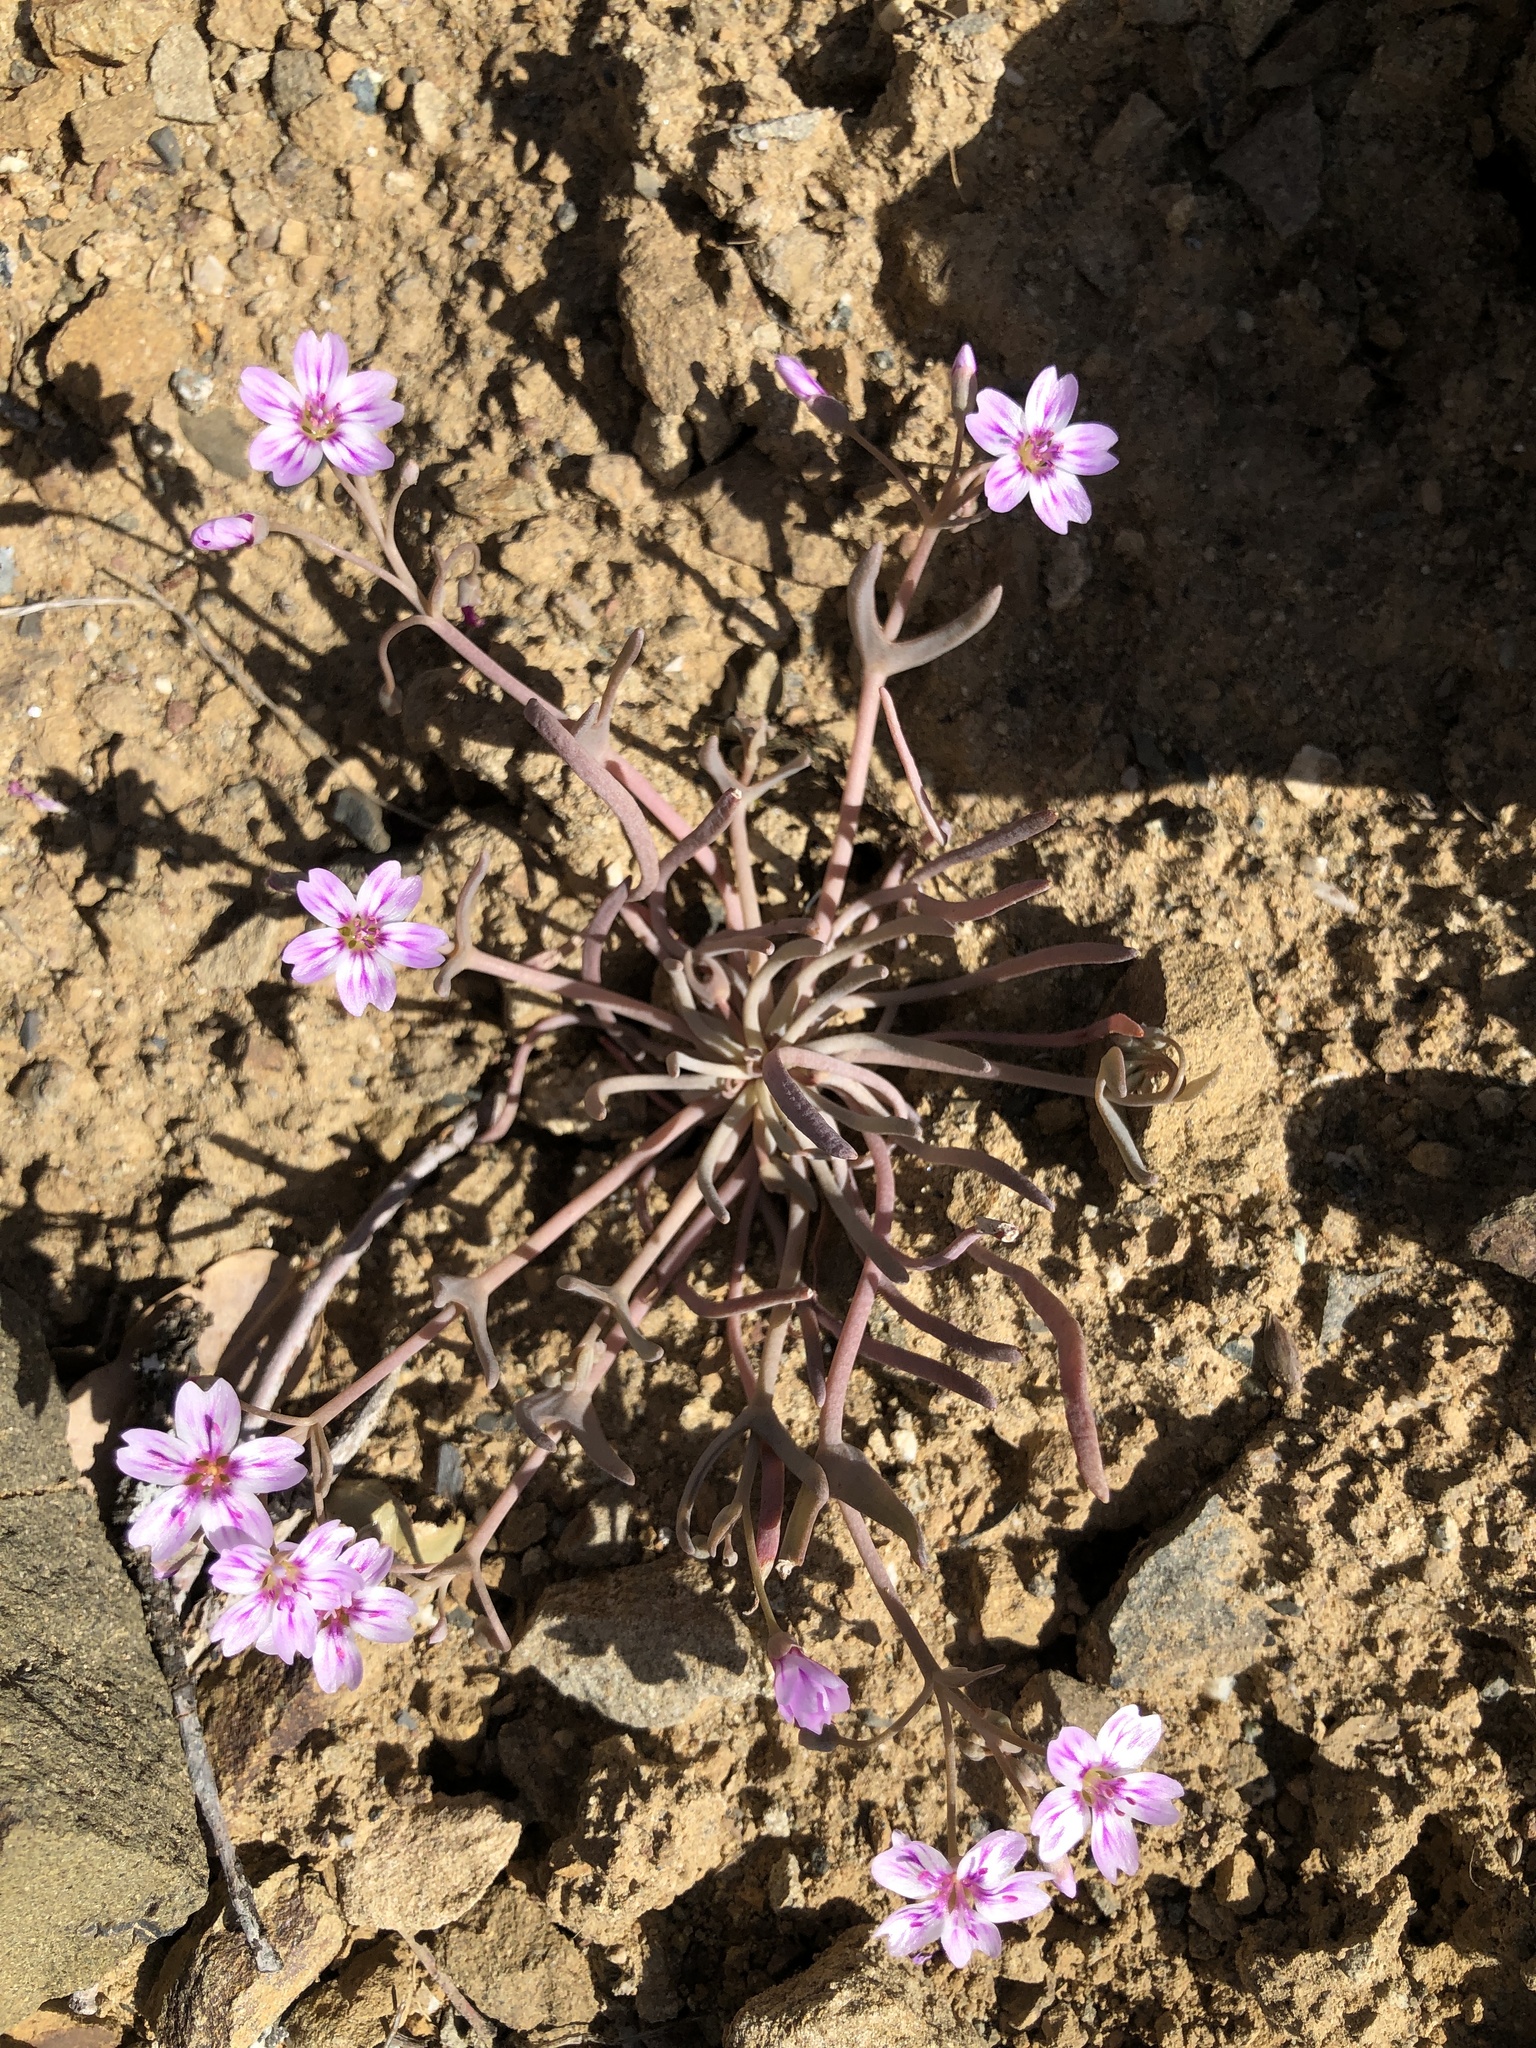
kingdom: Plantae
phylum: Tracheophyta
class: Magnoliopsida
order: Caryophyllales
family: Montiaceae
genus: Claytonia
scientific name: Claytonia gypsophiloides
